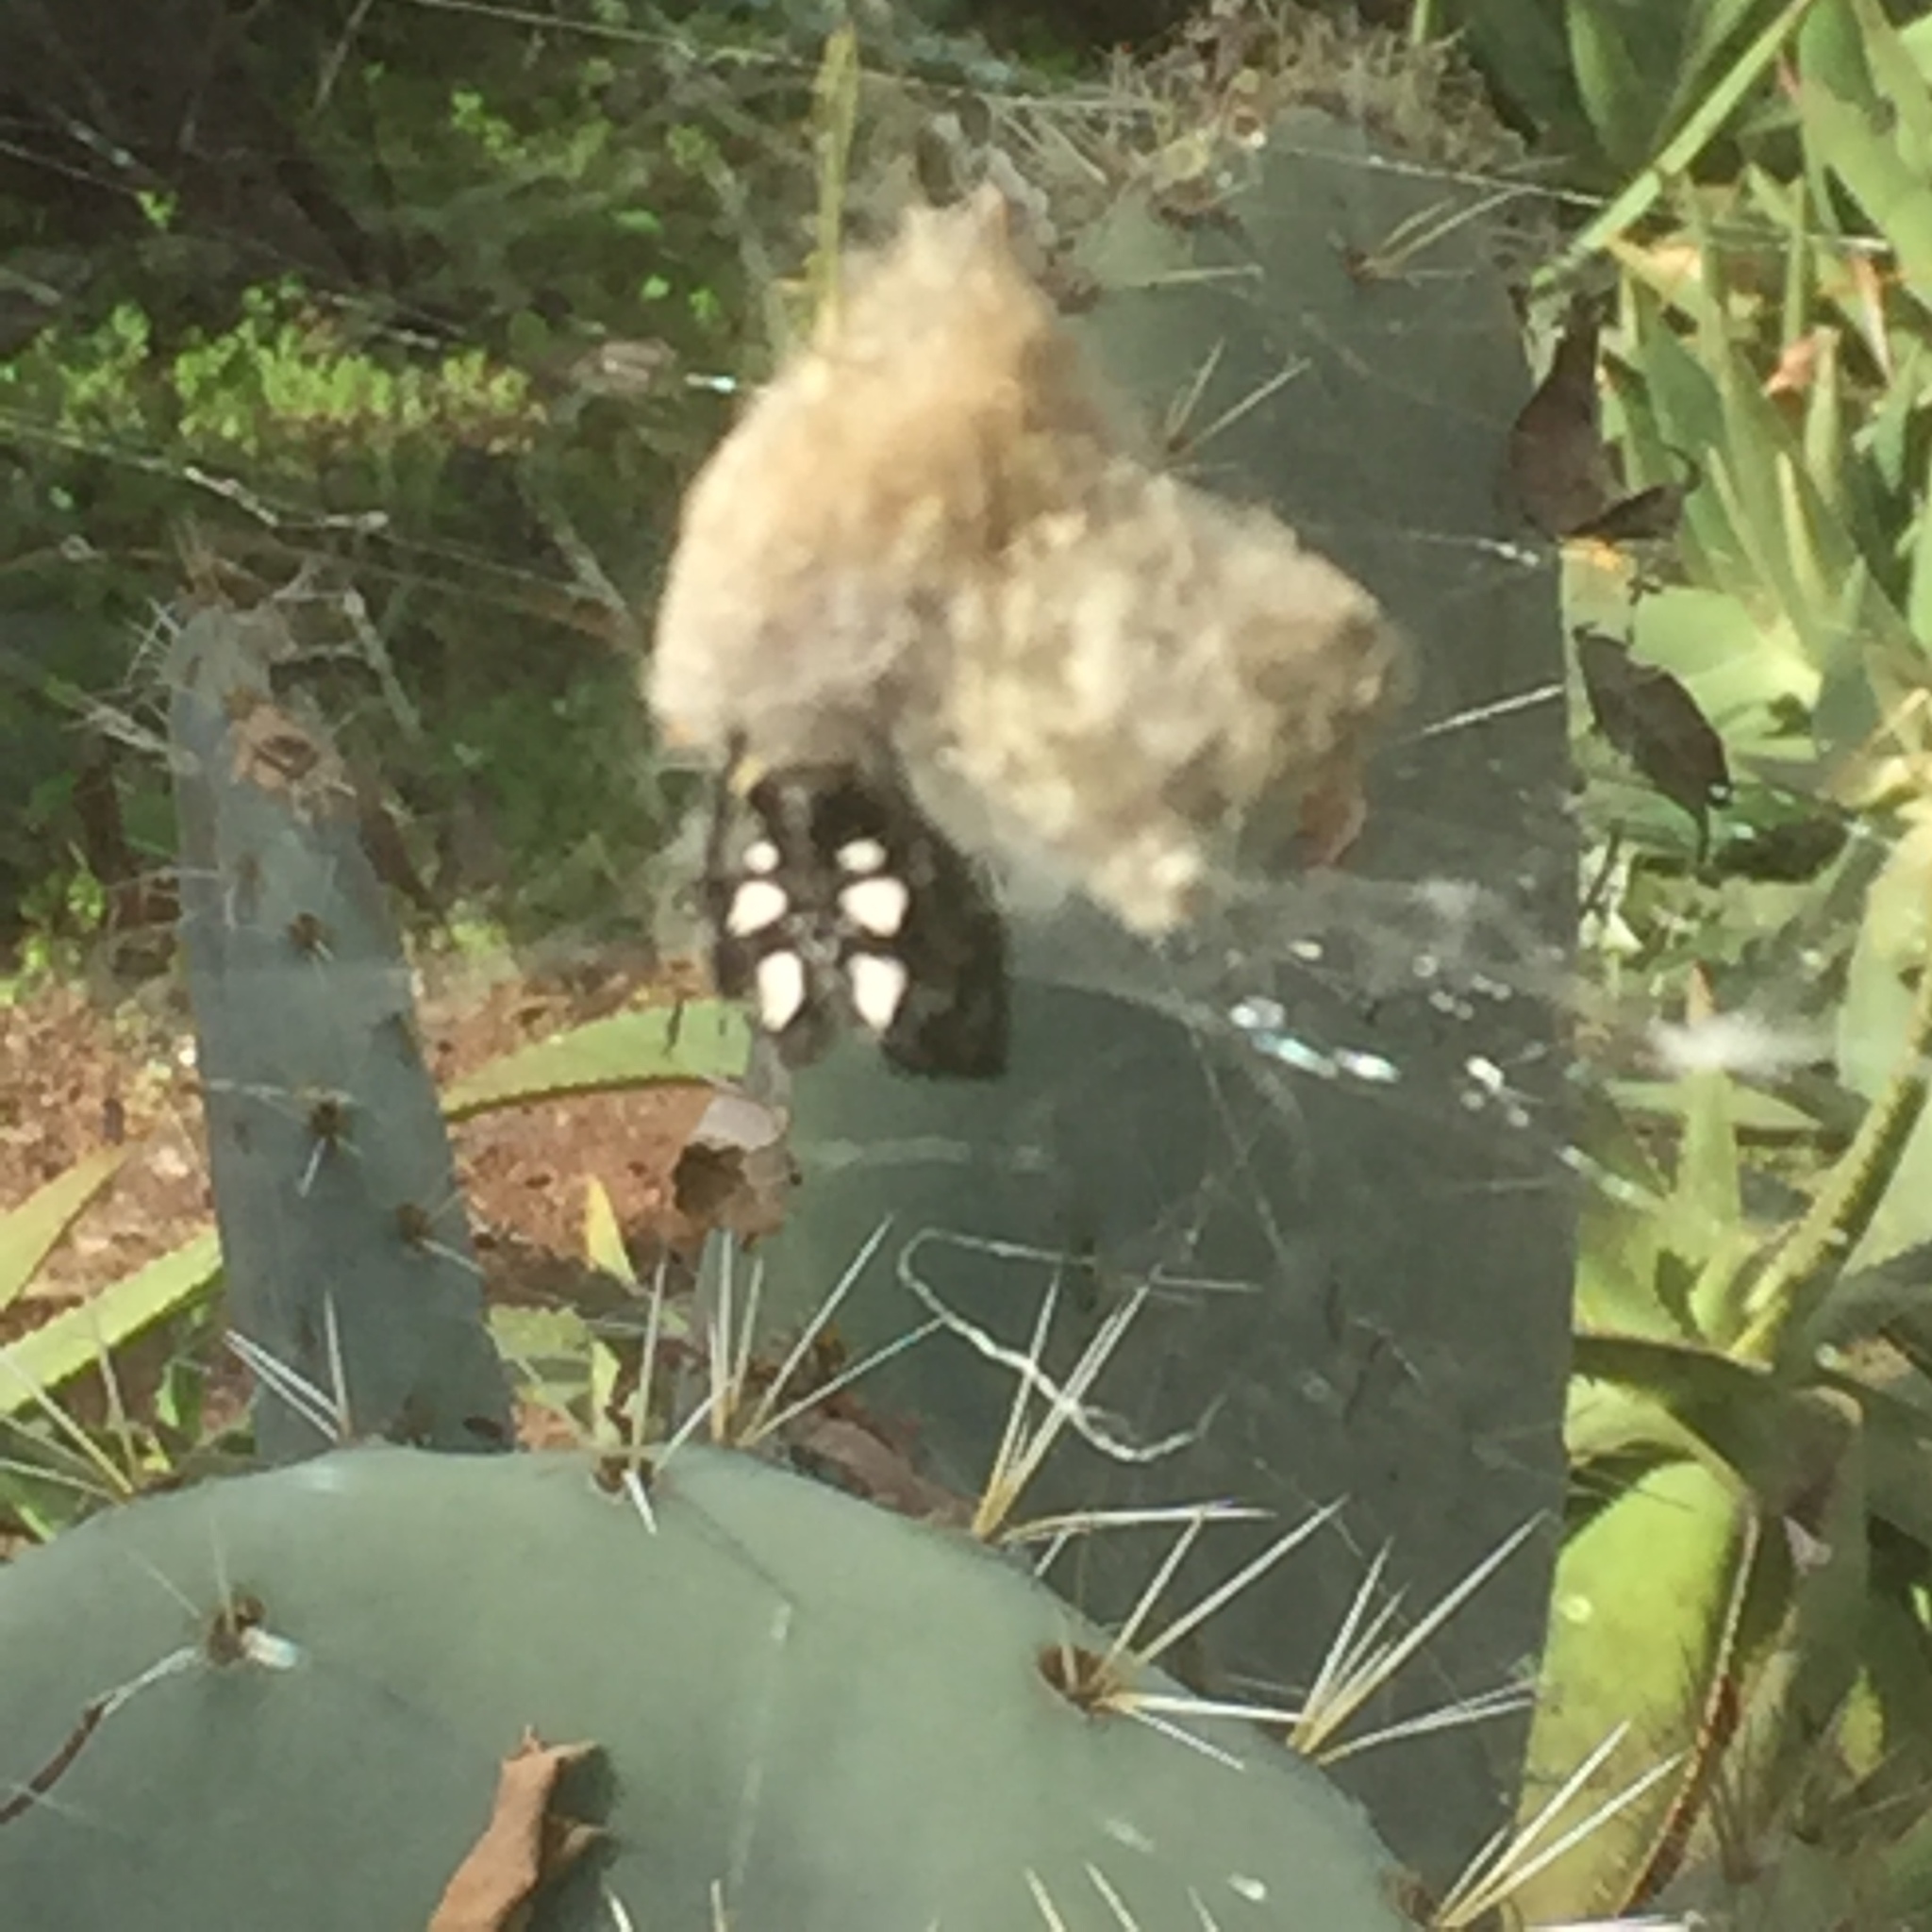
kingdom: Animalia
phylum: Arthropoda
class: Arachnida
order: Araneae
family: Araneidae
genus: Cyrtophora
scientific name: Cyrtophora citricola
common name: Orb weavers
